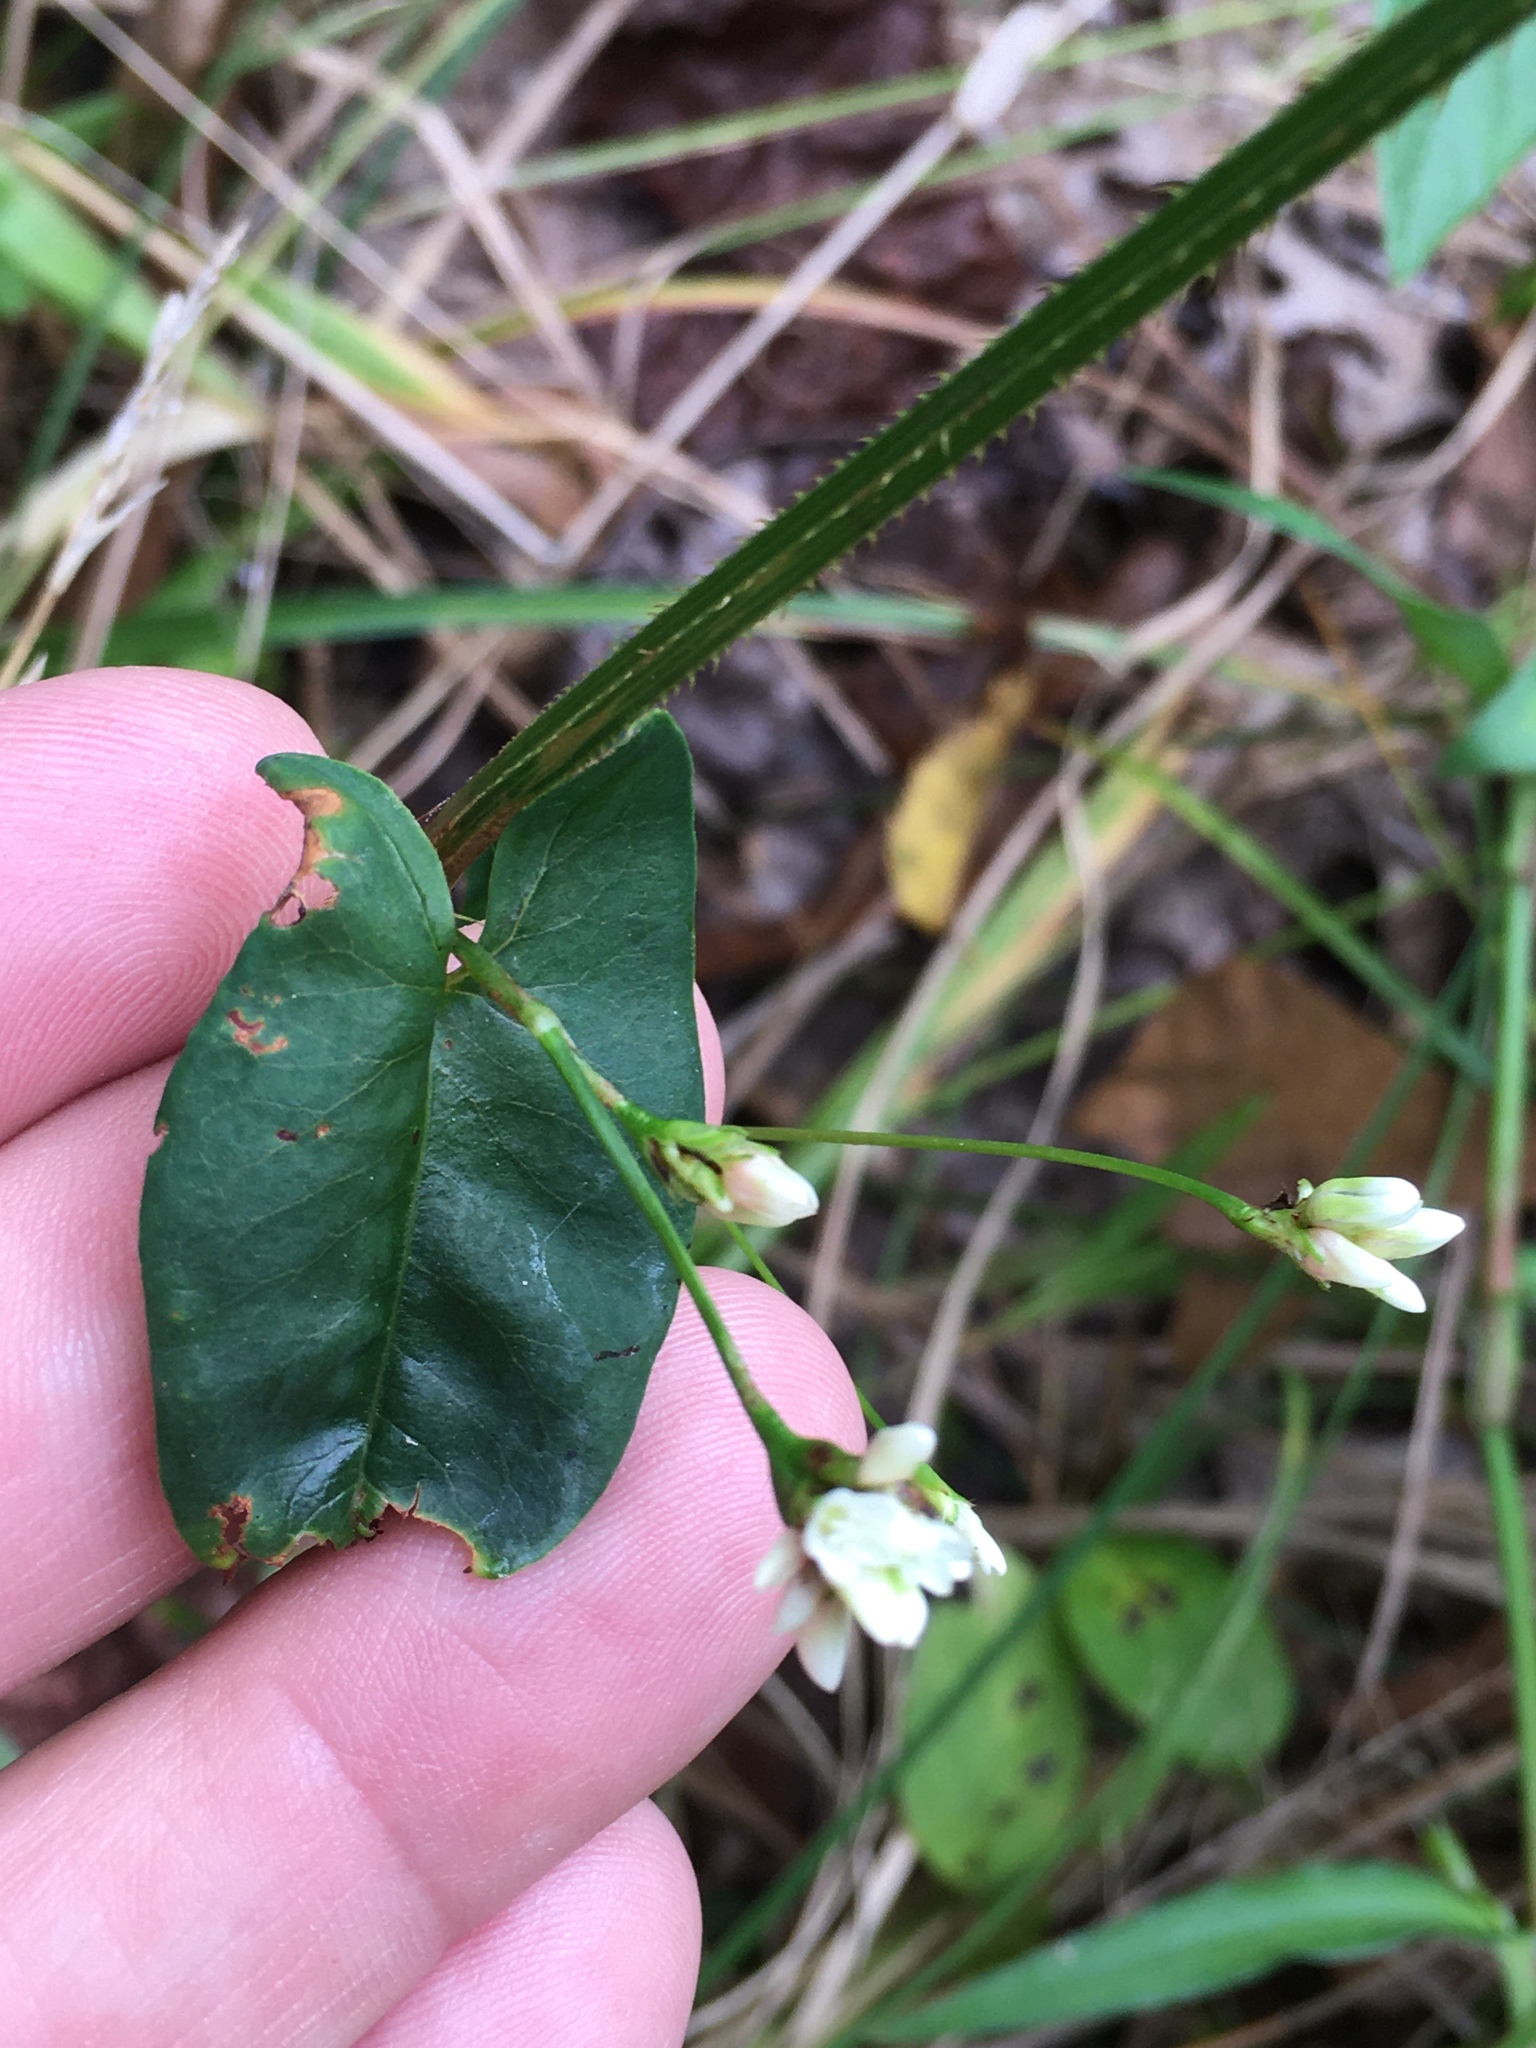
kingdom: Plantae
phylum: Tracheophyta
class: Magnoliopsida
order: Caryophyllales
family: Polygonaceae
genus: Persicaria
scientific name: Persicaria sagittata
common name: American tearthumb
